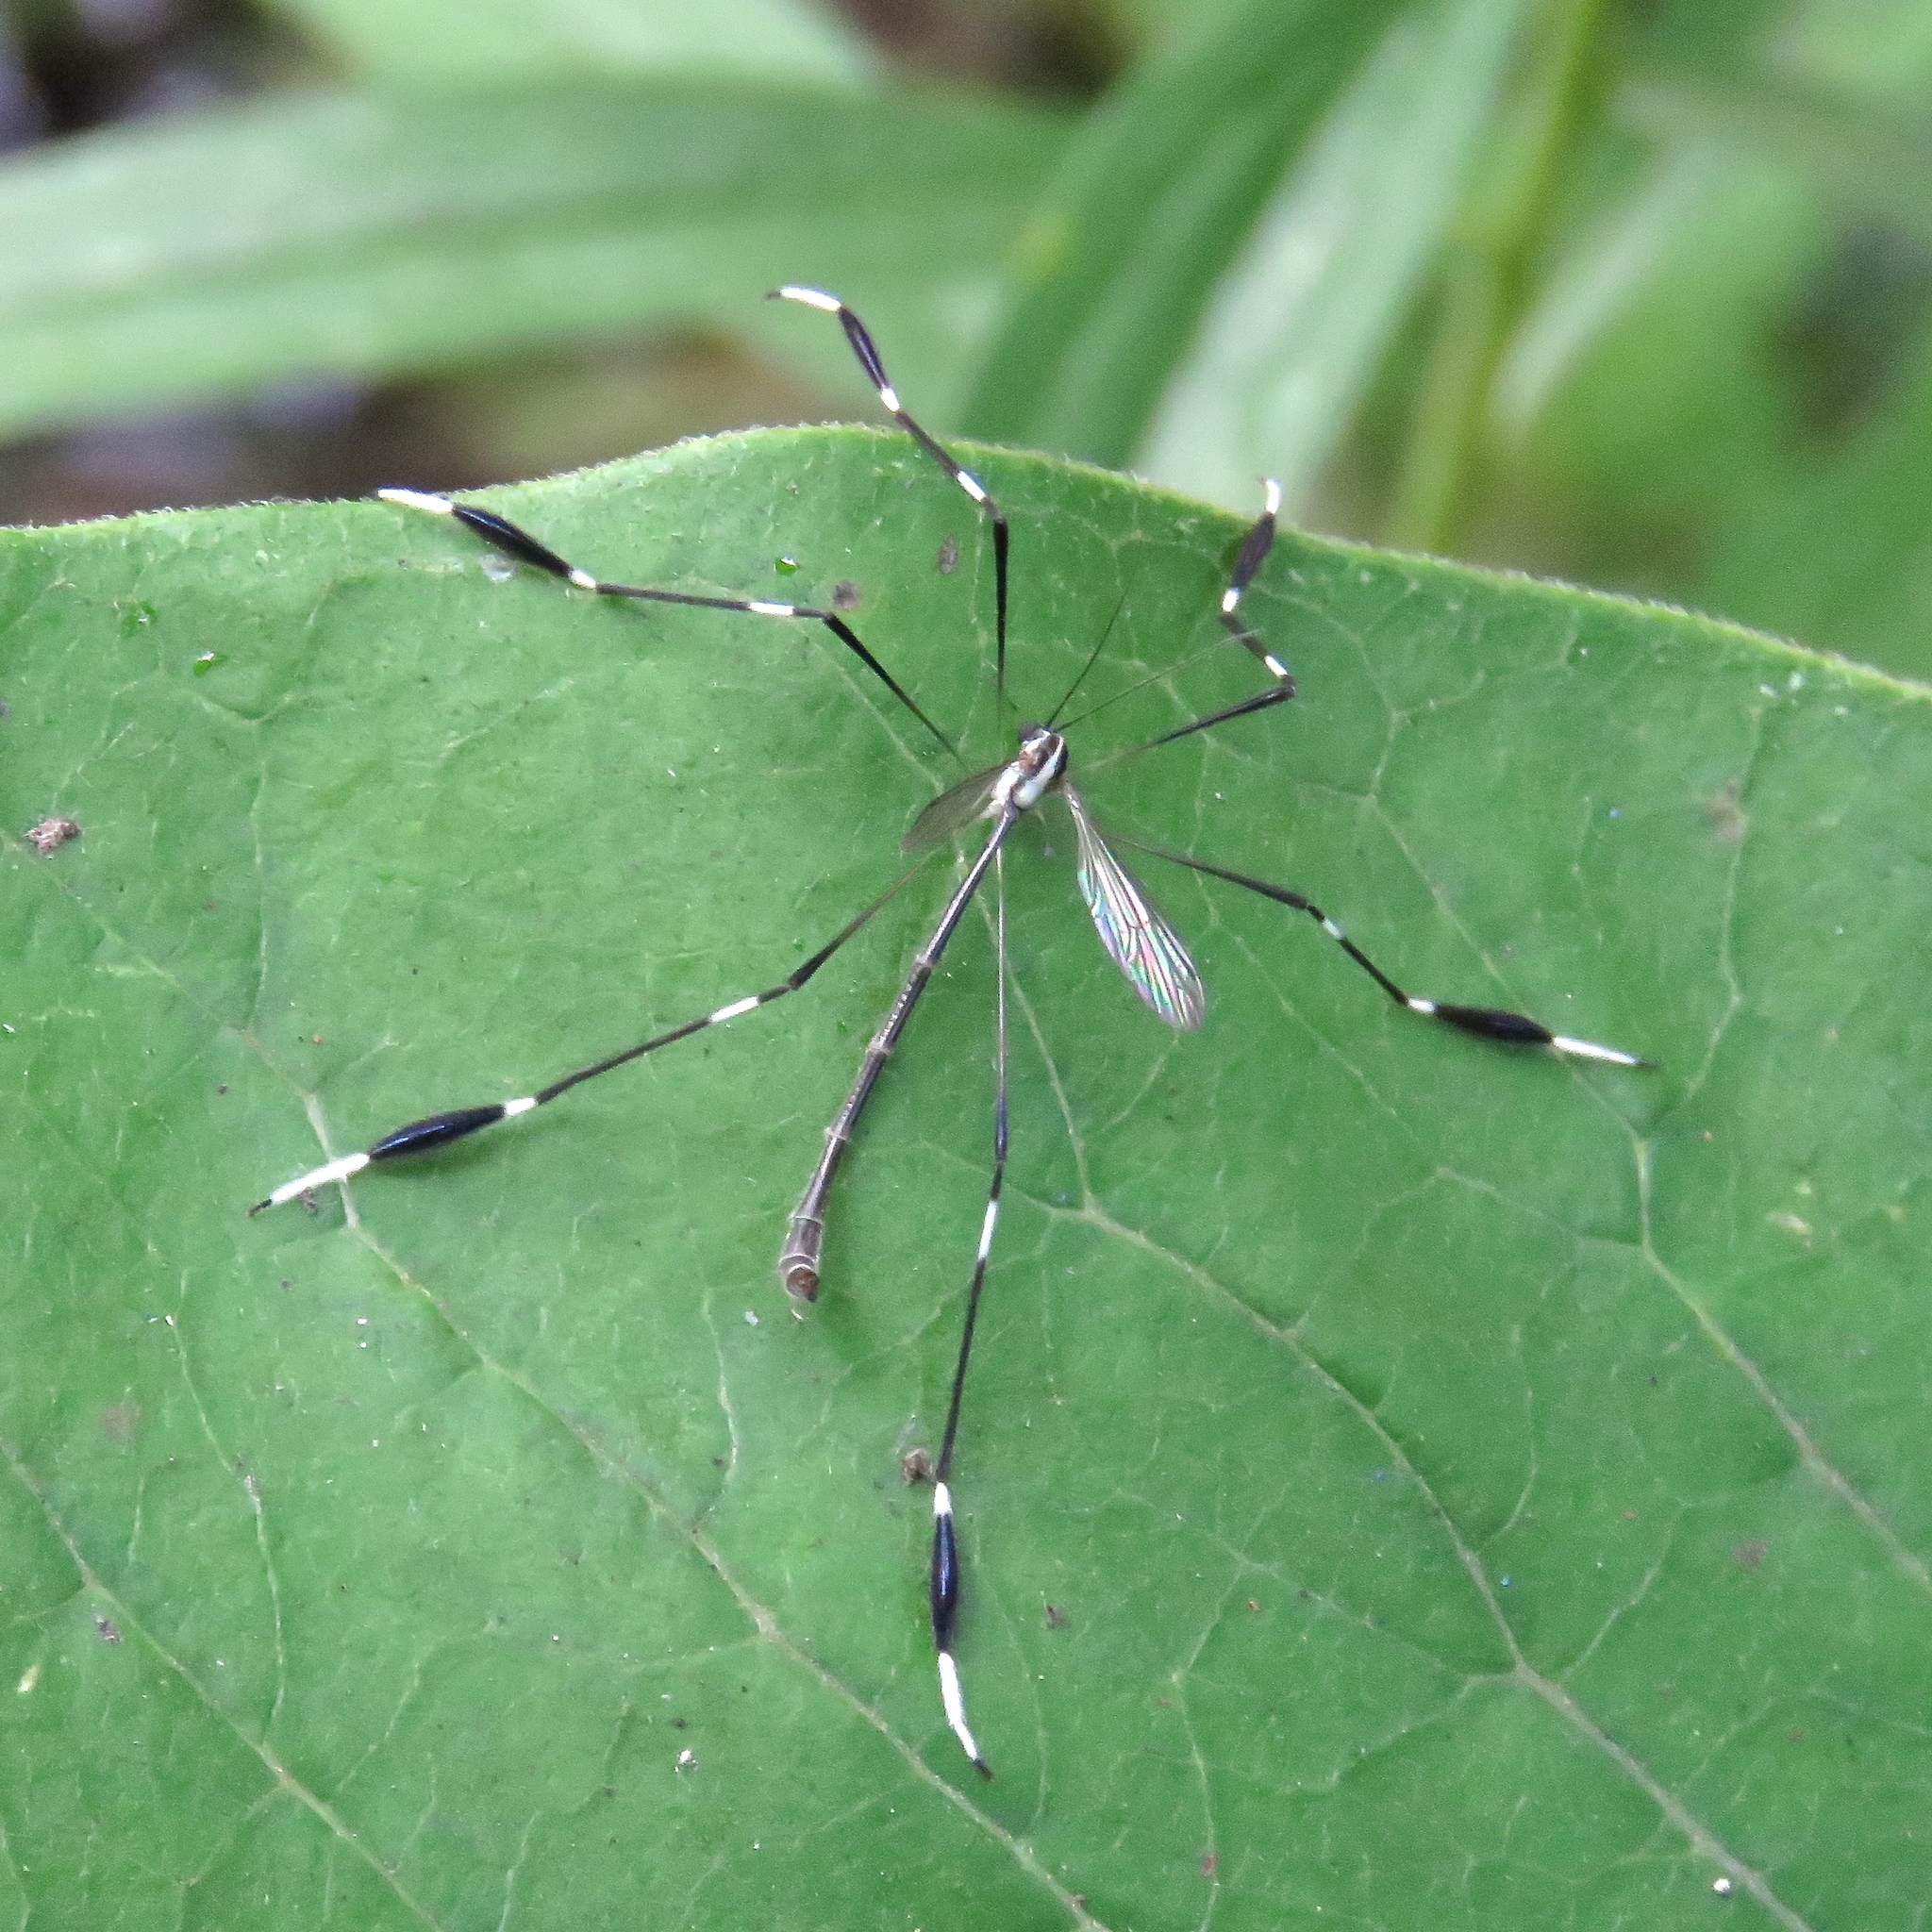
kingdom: Animalia
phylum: Arthropoda
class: Insecta
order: Diptera
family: Ptychopteridae
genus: Bittacomorpha
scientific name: Bittacomorpha clavipes
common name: Eastern phantom crane fly
